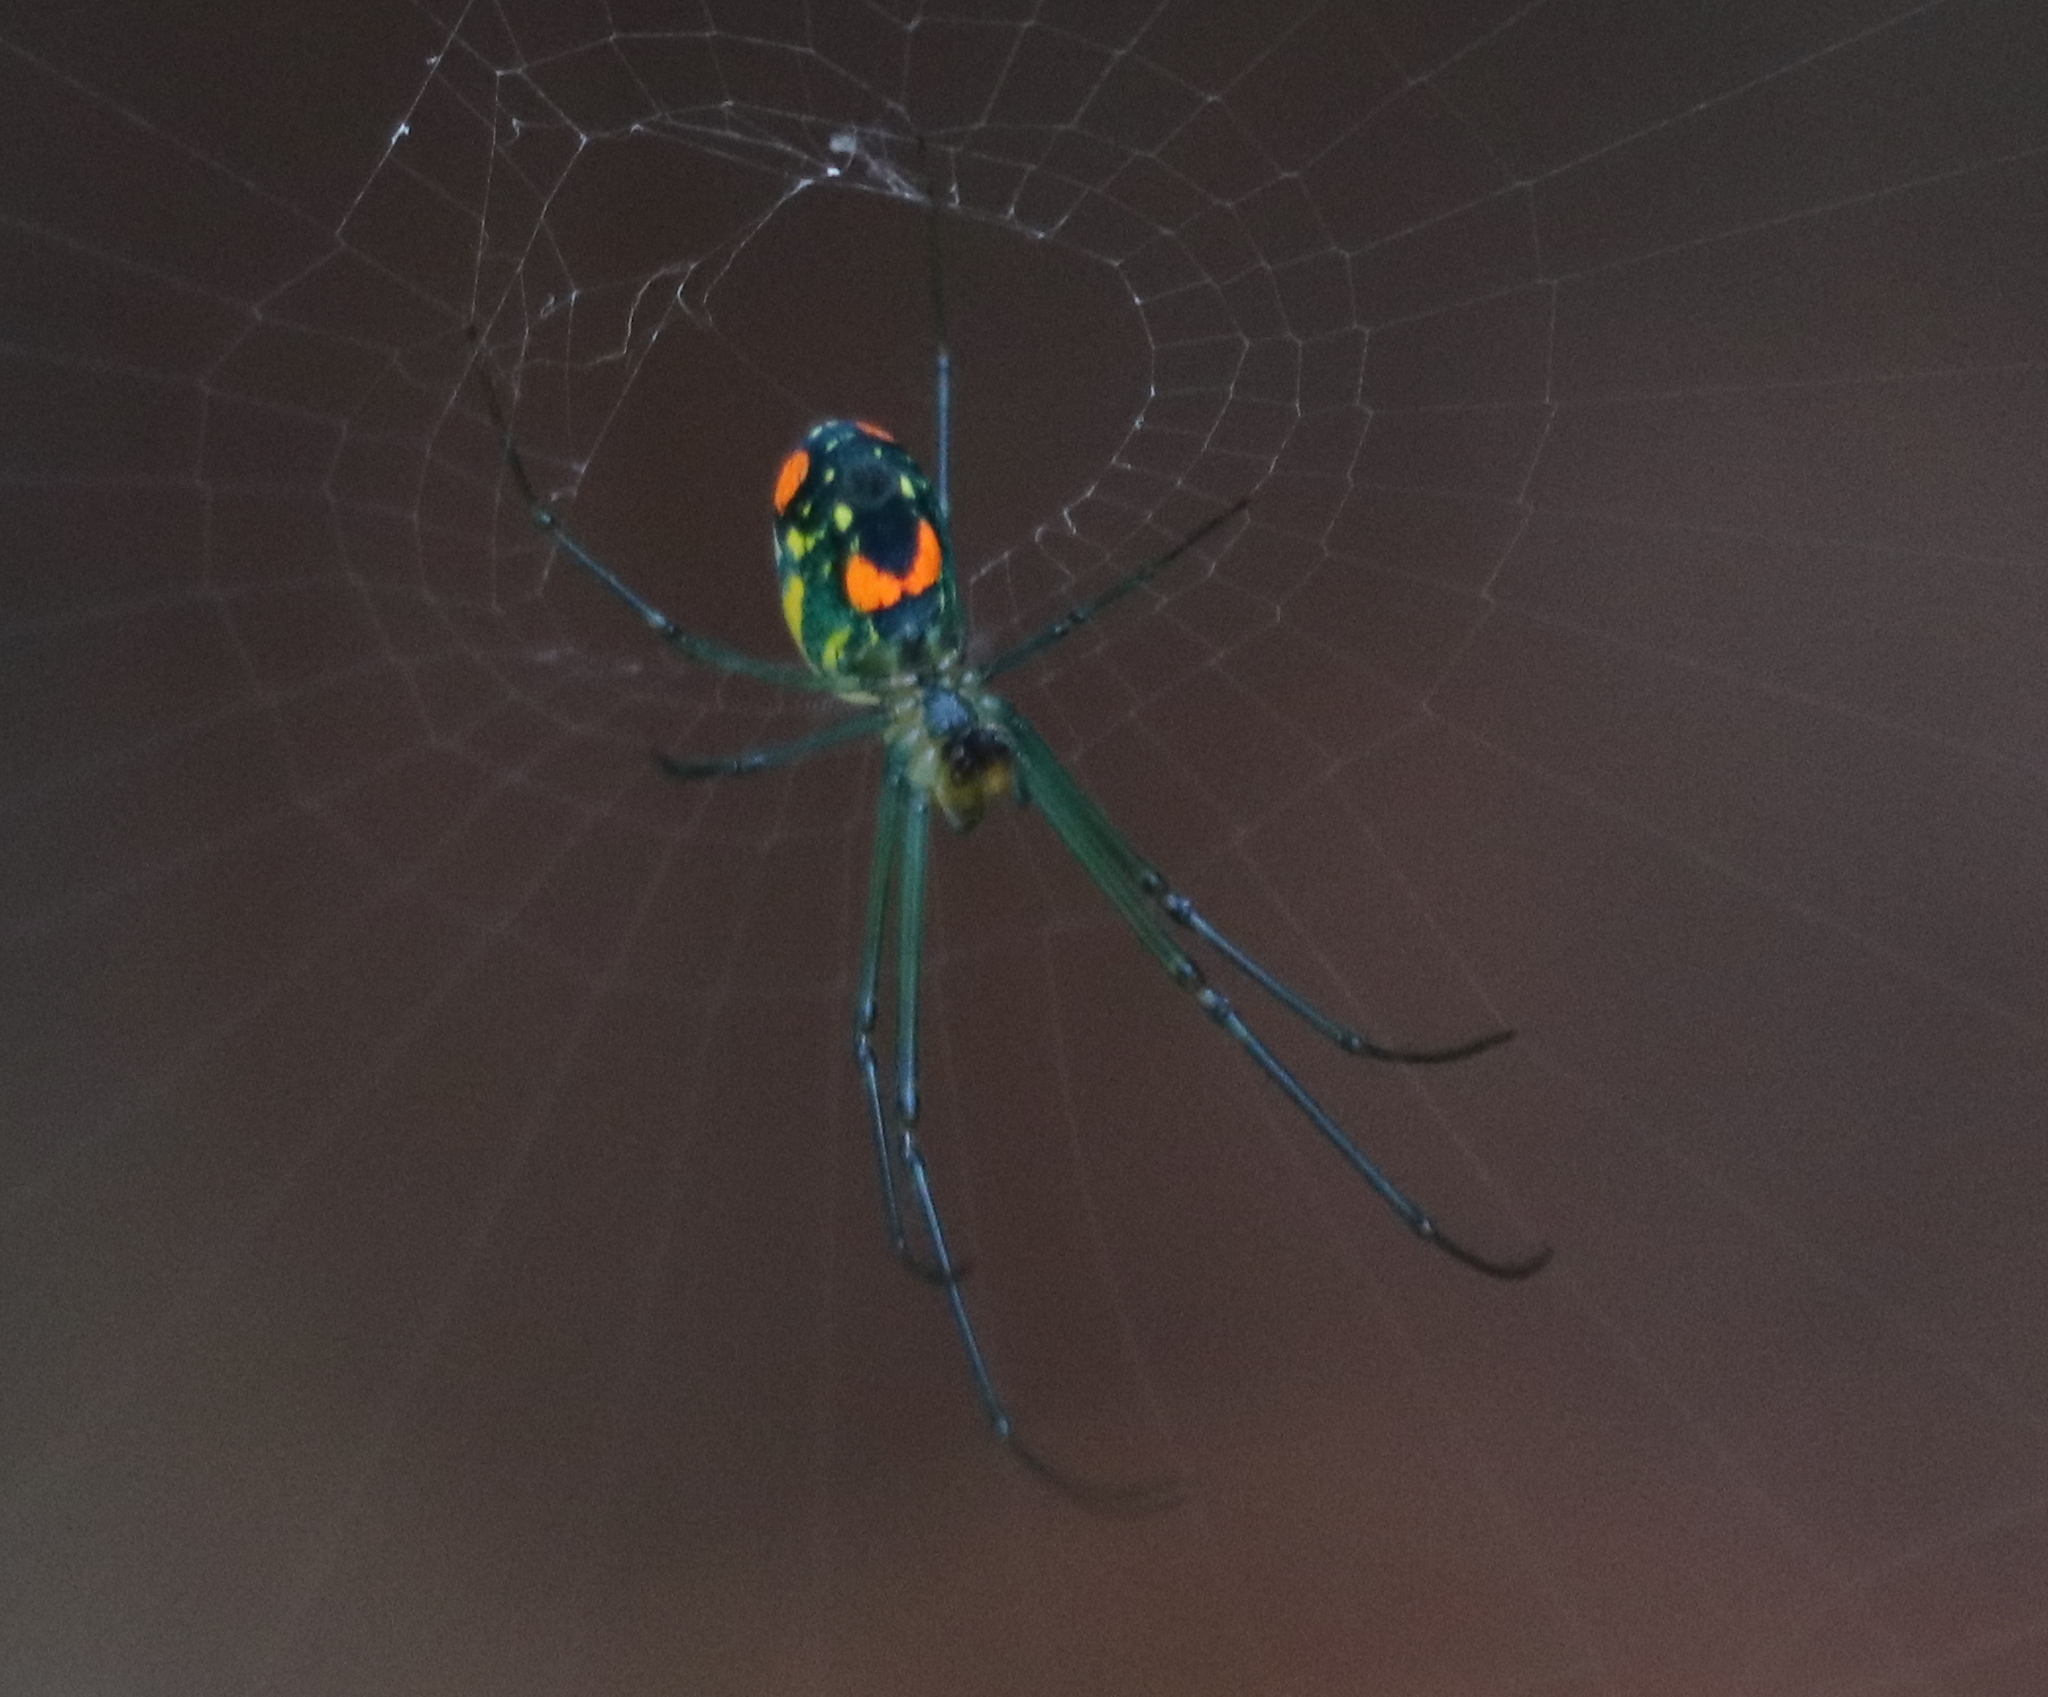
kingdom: Animalia
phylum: Arthropoda
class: Arachnida
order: Araneae
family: Tetragnathidae
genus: Leucauge
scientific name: Leucauge argyrobapta
